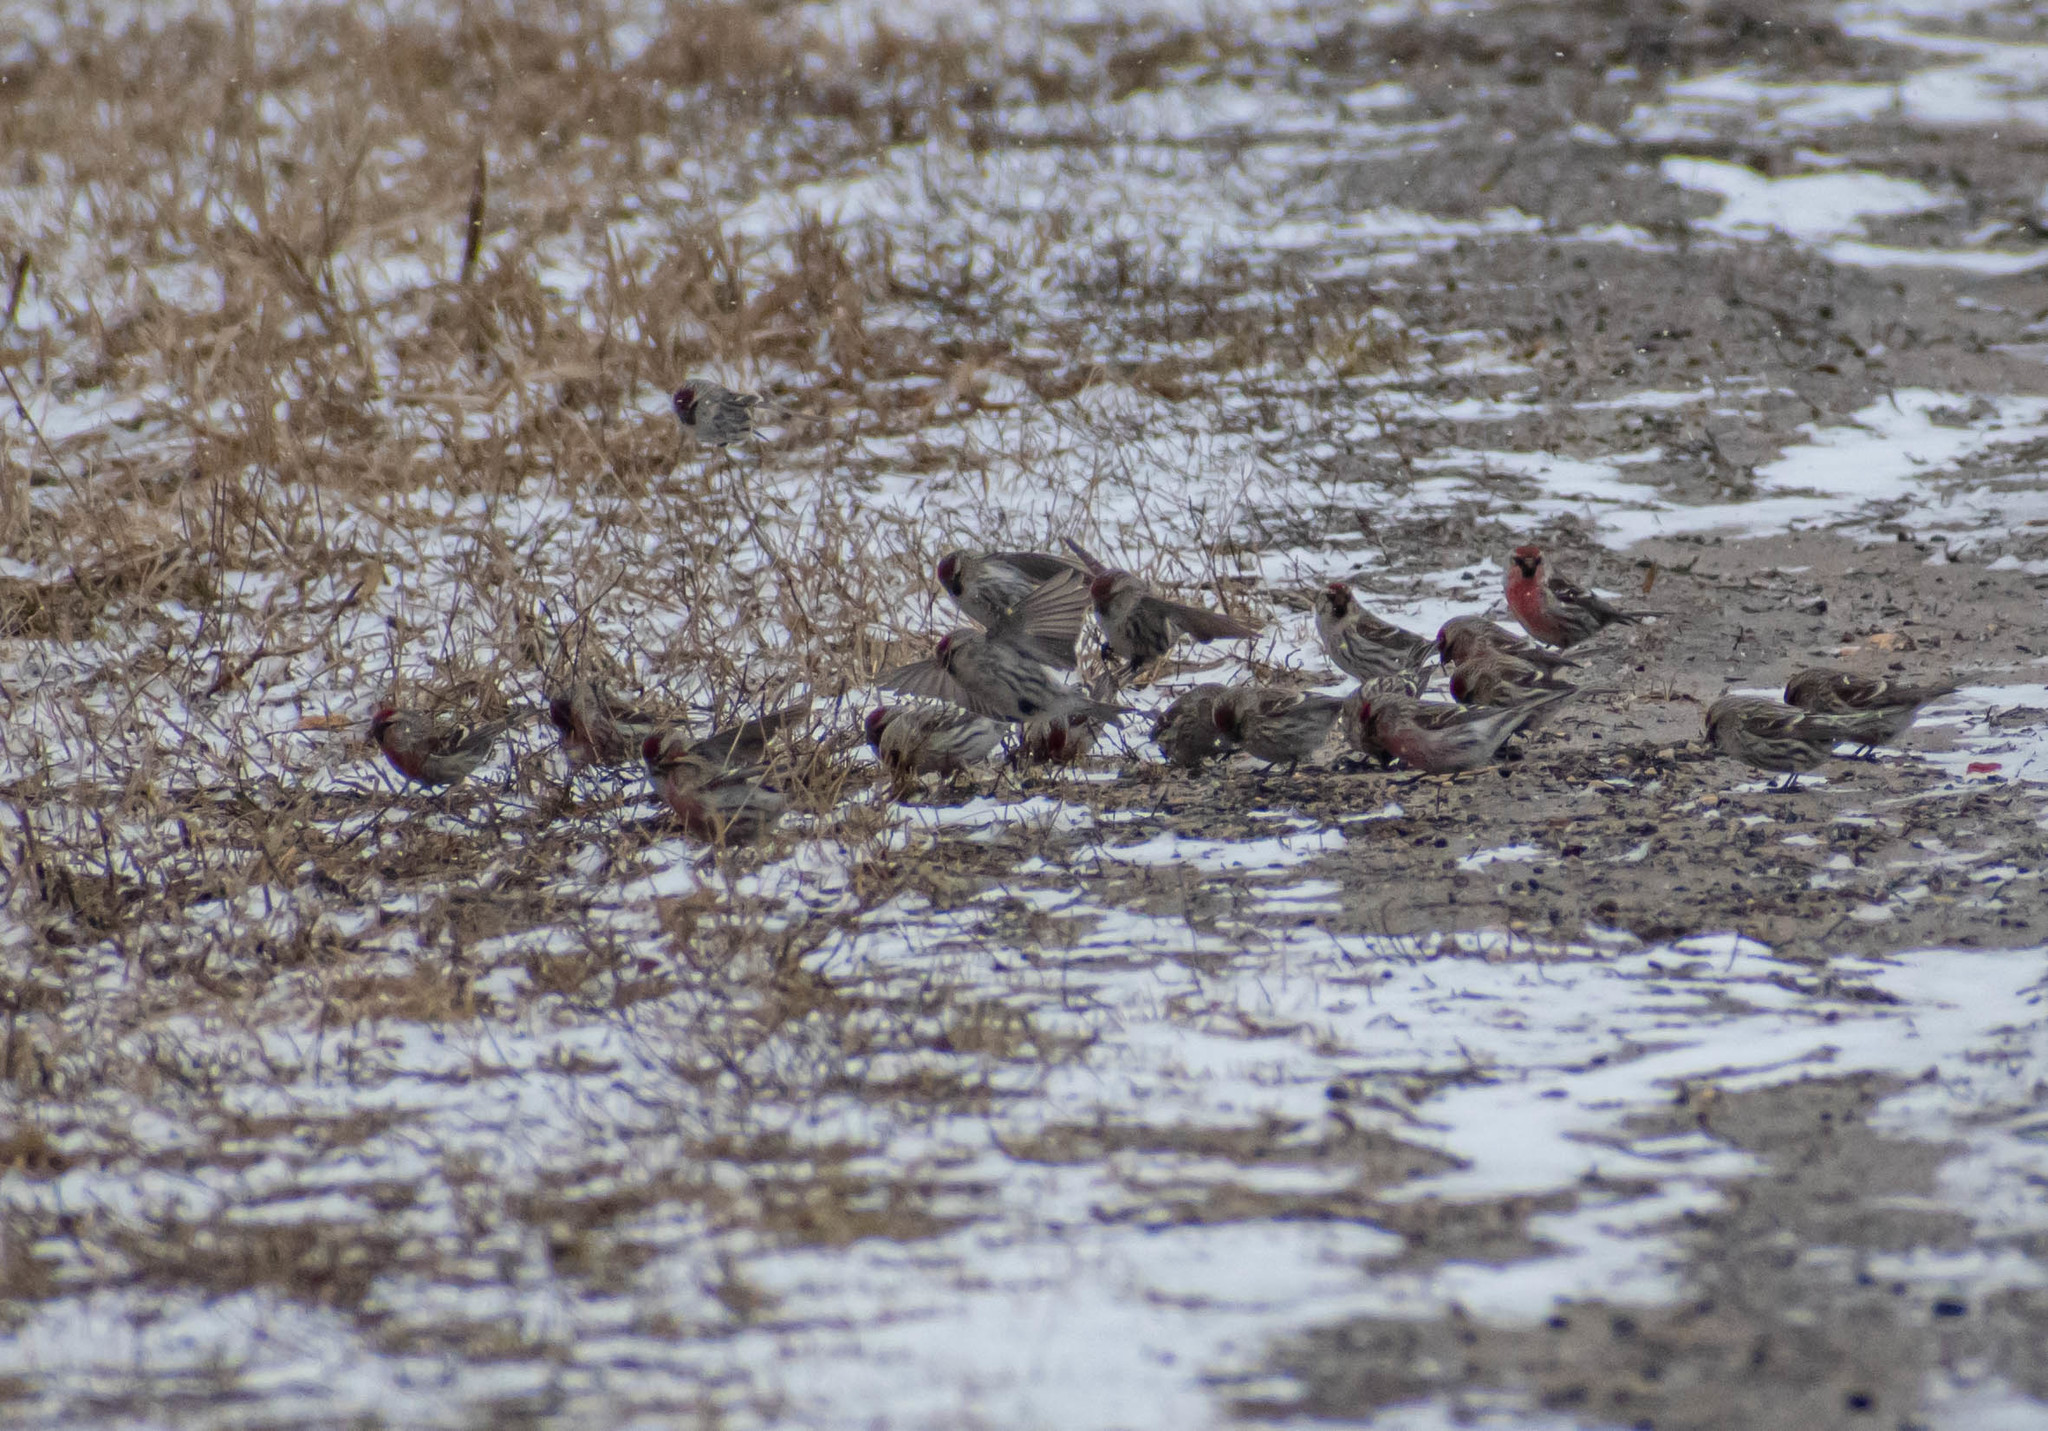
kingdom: Animalia
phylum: Chordata
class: Aves
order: Passeriformes
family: Fringillidae
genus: Acanthis
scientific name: Acanthis flammea
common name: Common redpoll
